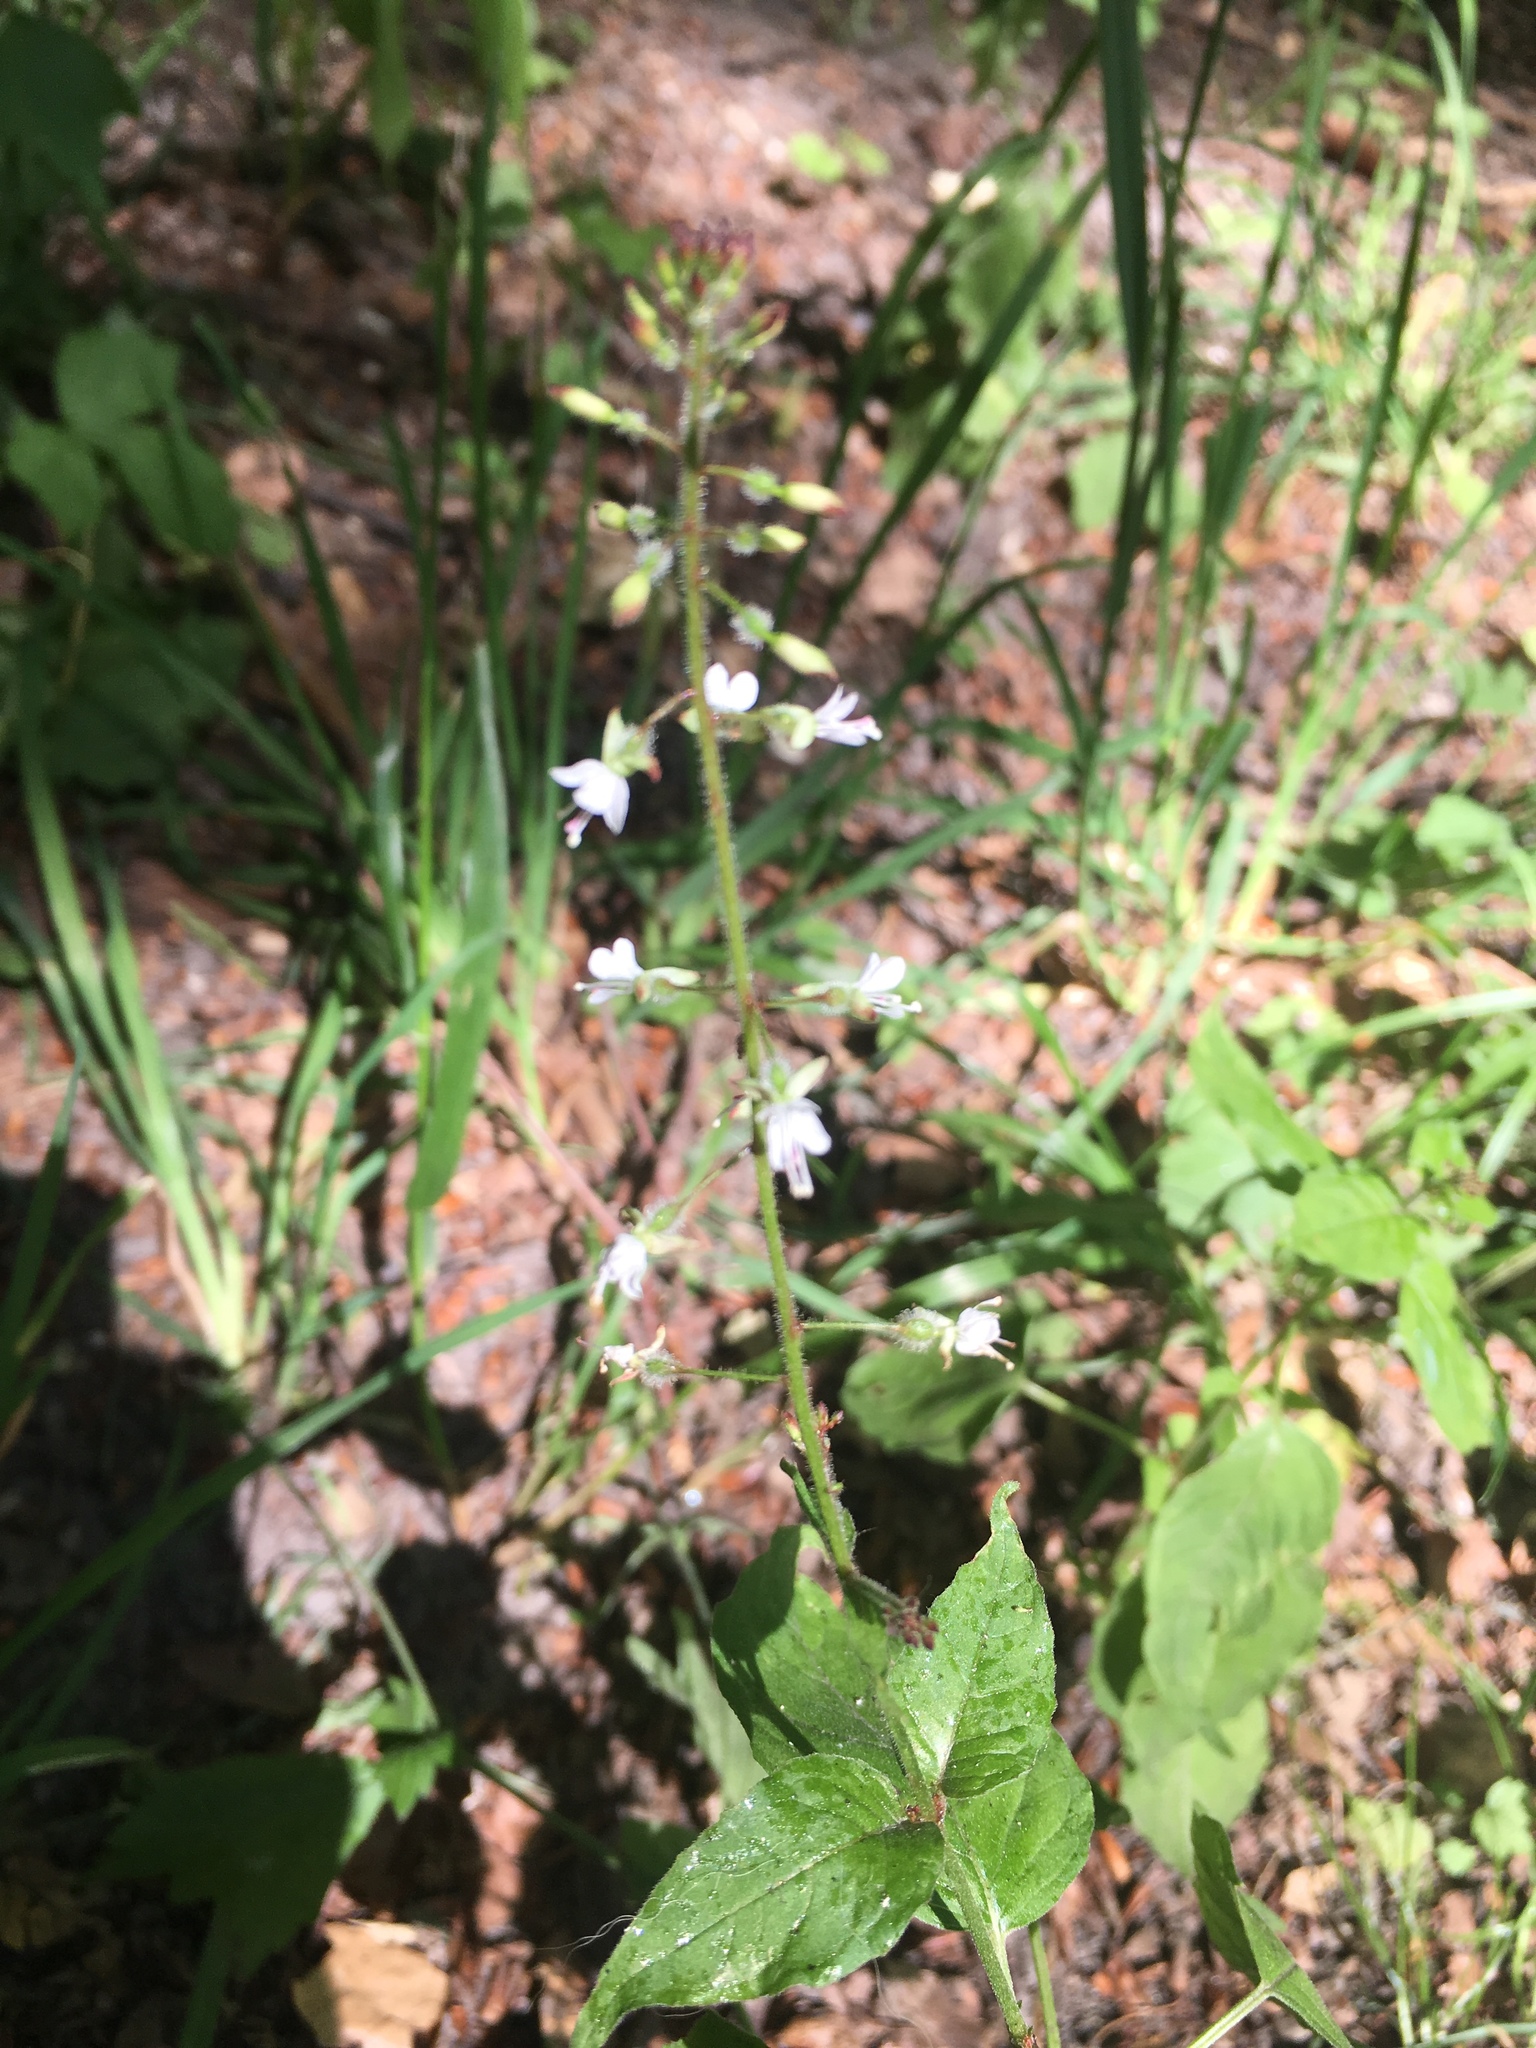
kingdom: Plantae
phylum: Tracheophyta
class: Magnoliopsida
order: Myrtales
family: Onagraceae
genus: Circaea
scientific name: Circaea lutetiana
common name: Enchanter's-nightshade
